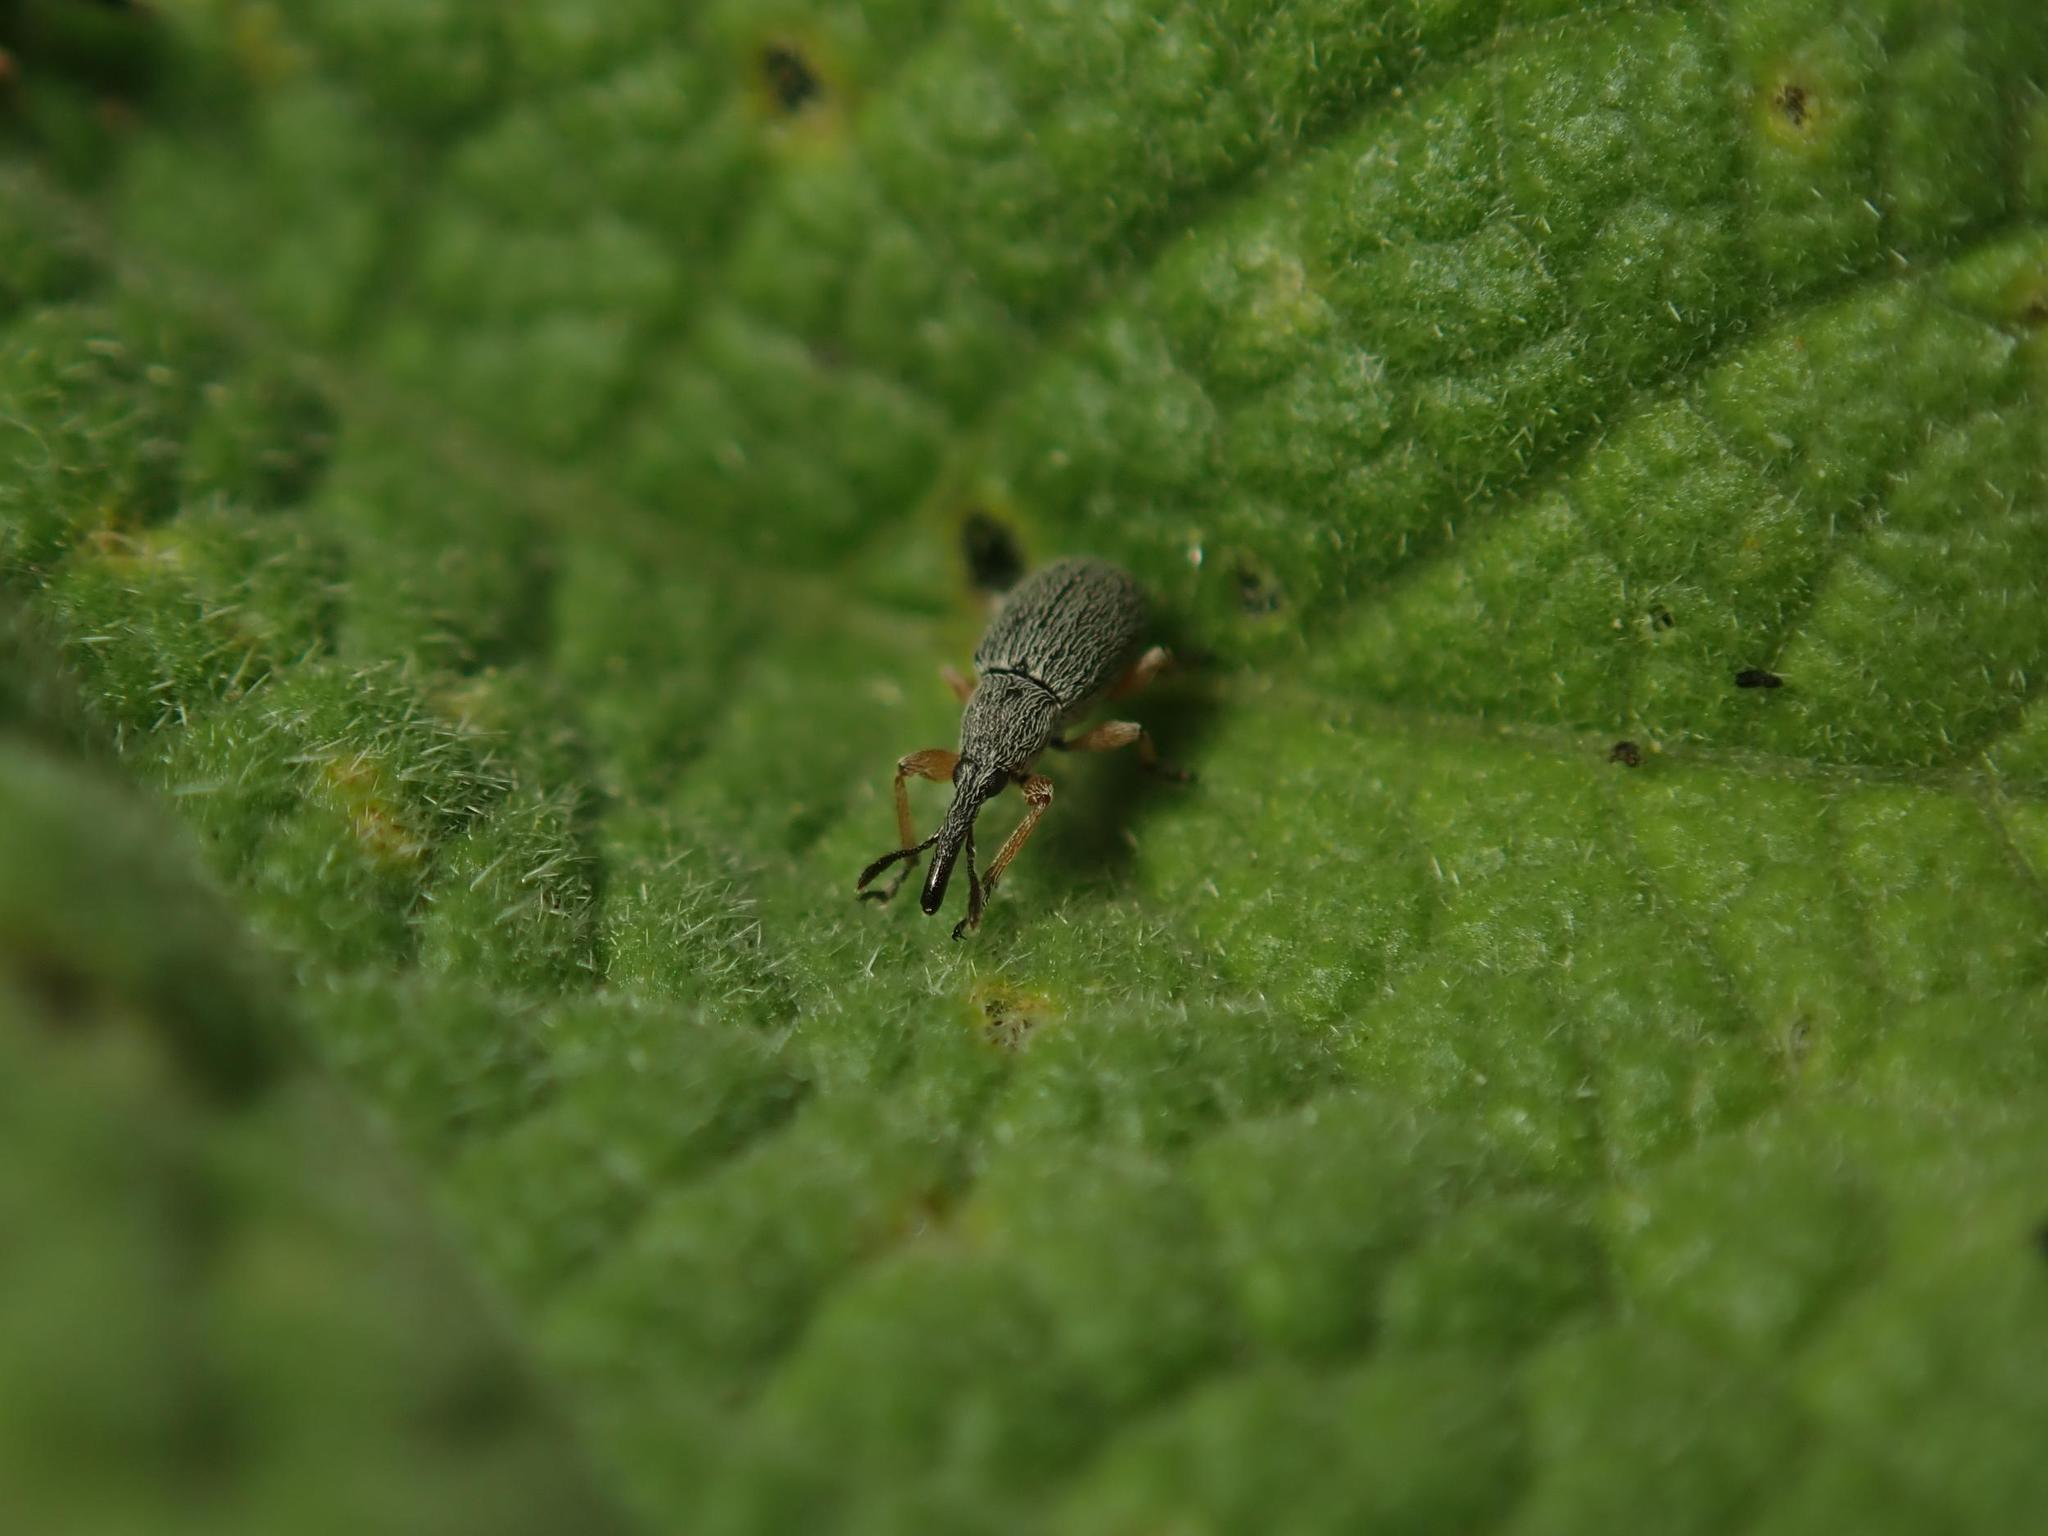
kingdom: Animalia
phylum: Arthropoda
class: Insecta
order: Coleoptera
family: Brentidae
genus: Rhopalapion
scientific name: Rhopalapion longirostre
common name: Hollyhock weevil
